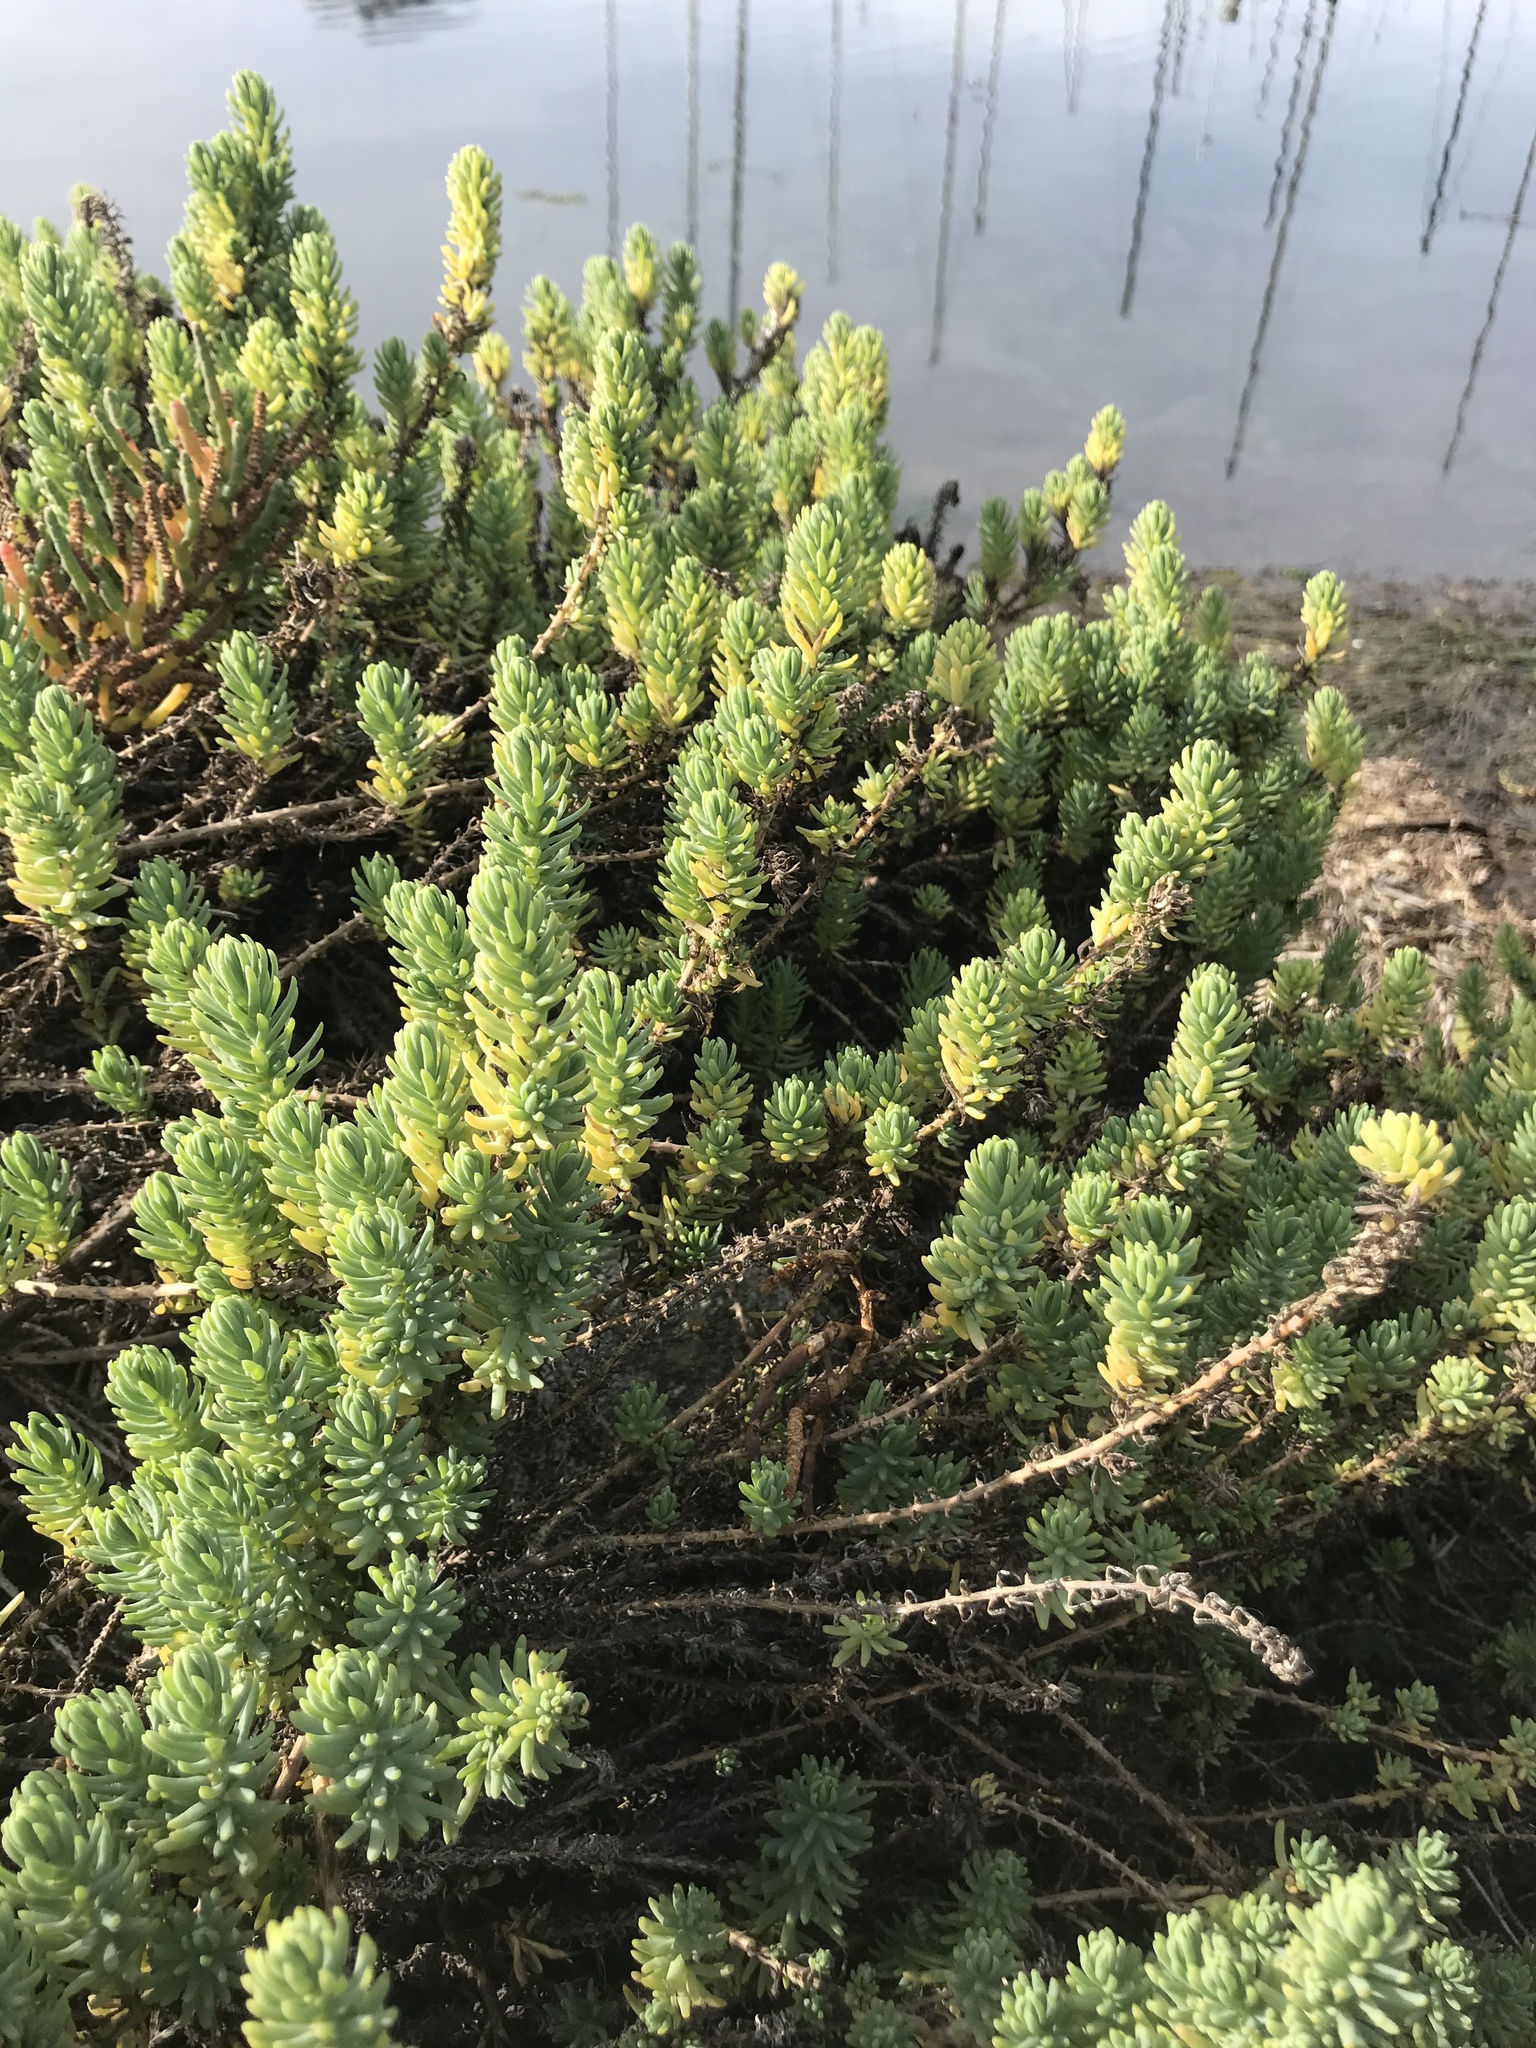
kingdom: Plantae
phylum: Tracheophyta
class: Magnoliopsida
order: Caryophyllales
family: Amaranthaceae
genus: Suaeda
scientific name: Suaeda californica
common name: California sea-blite
